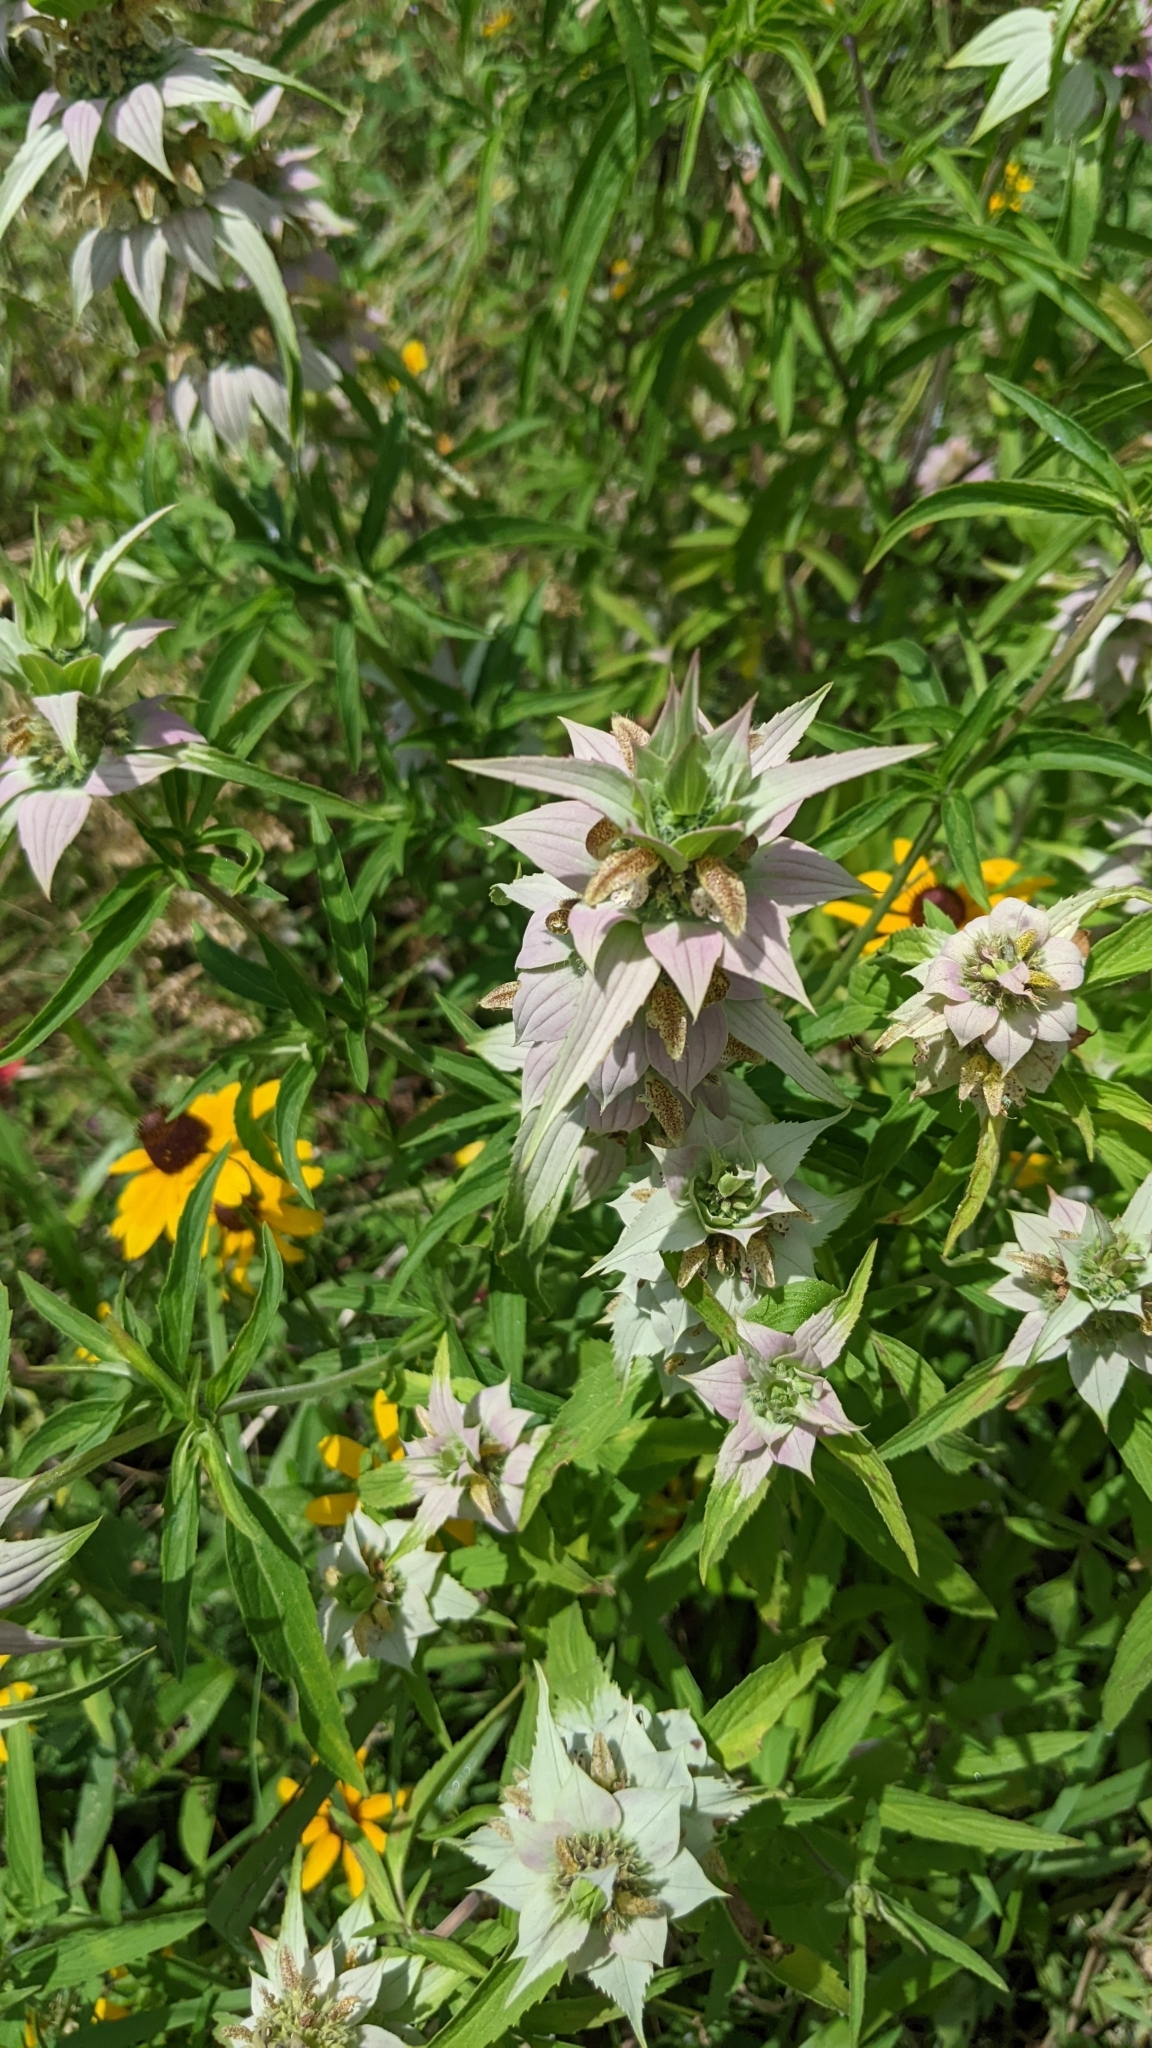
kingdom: Plantae
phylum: Tracheophyta
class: Magnoliopsida
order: Lamiales
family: Lamiaceae
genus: Monarda
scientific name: Monarda citriodora
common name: Lemon beebalm
